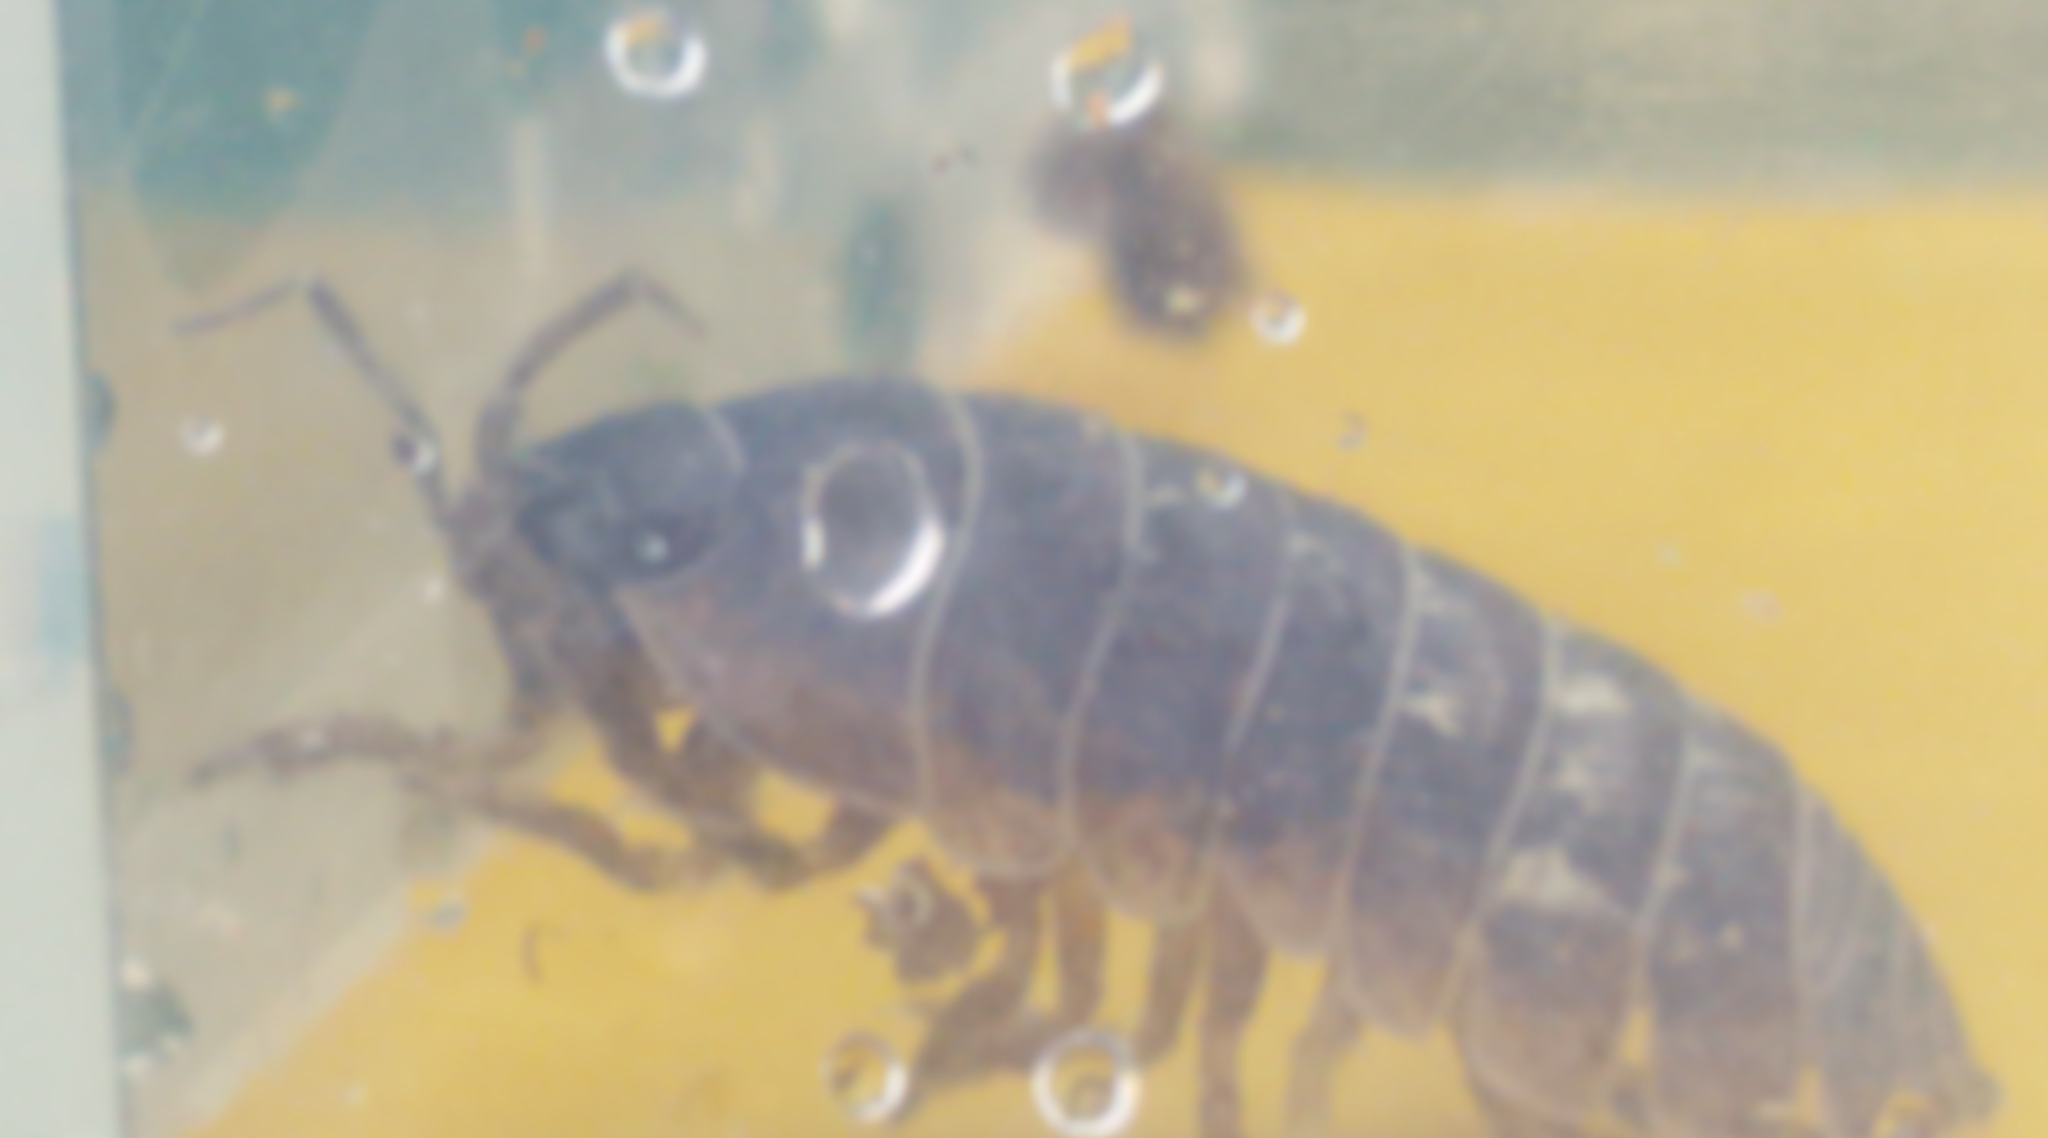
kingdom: Animalia
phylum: Arthropoda
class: Malacostraca
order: Isopoda
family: Armadillidiidae
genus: Armadillidium
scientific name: Armadillidium vulgare
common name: Common pill woodlouse
